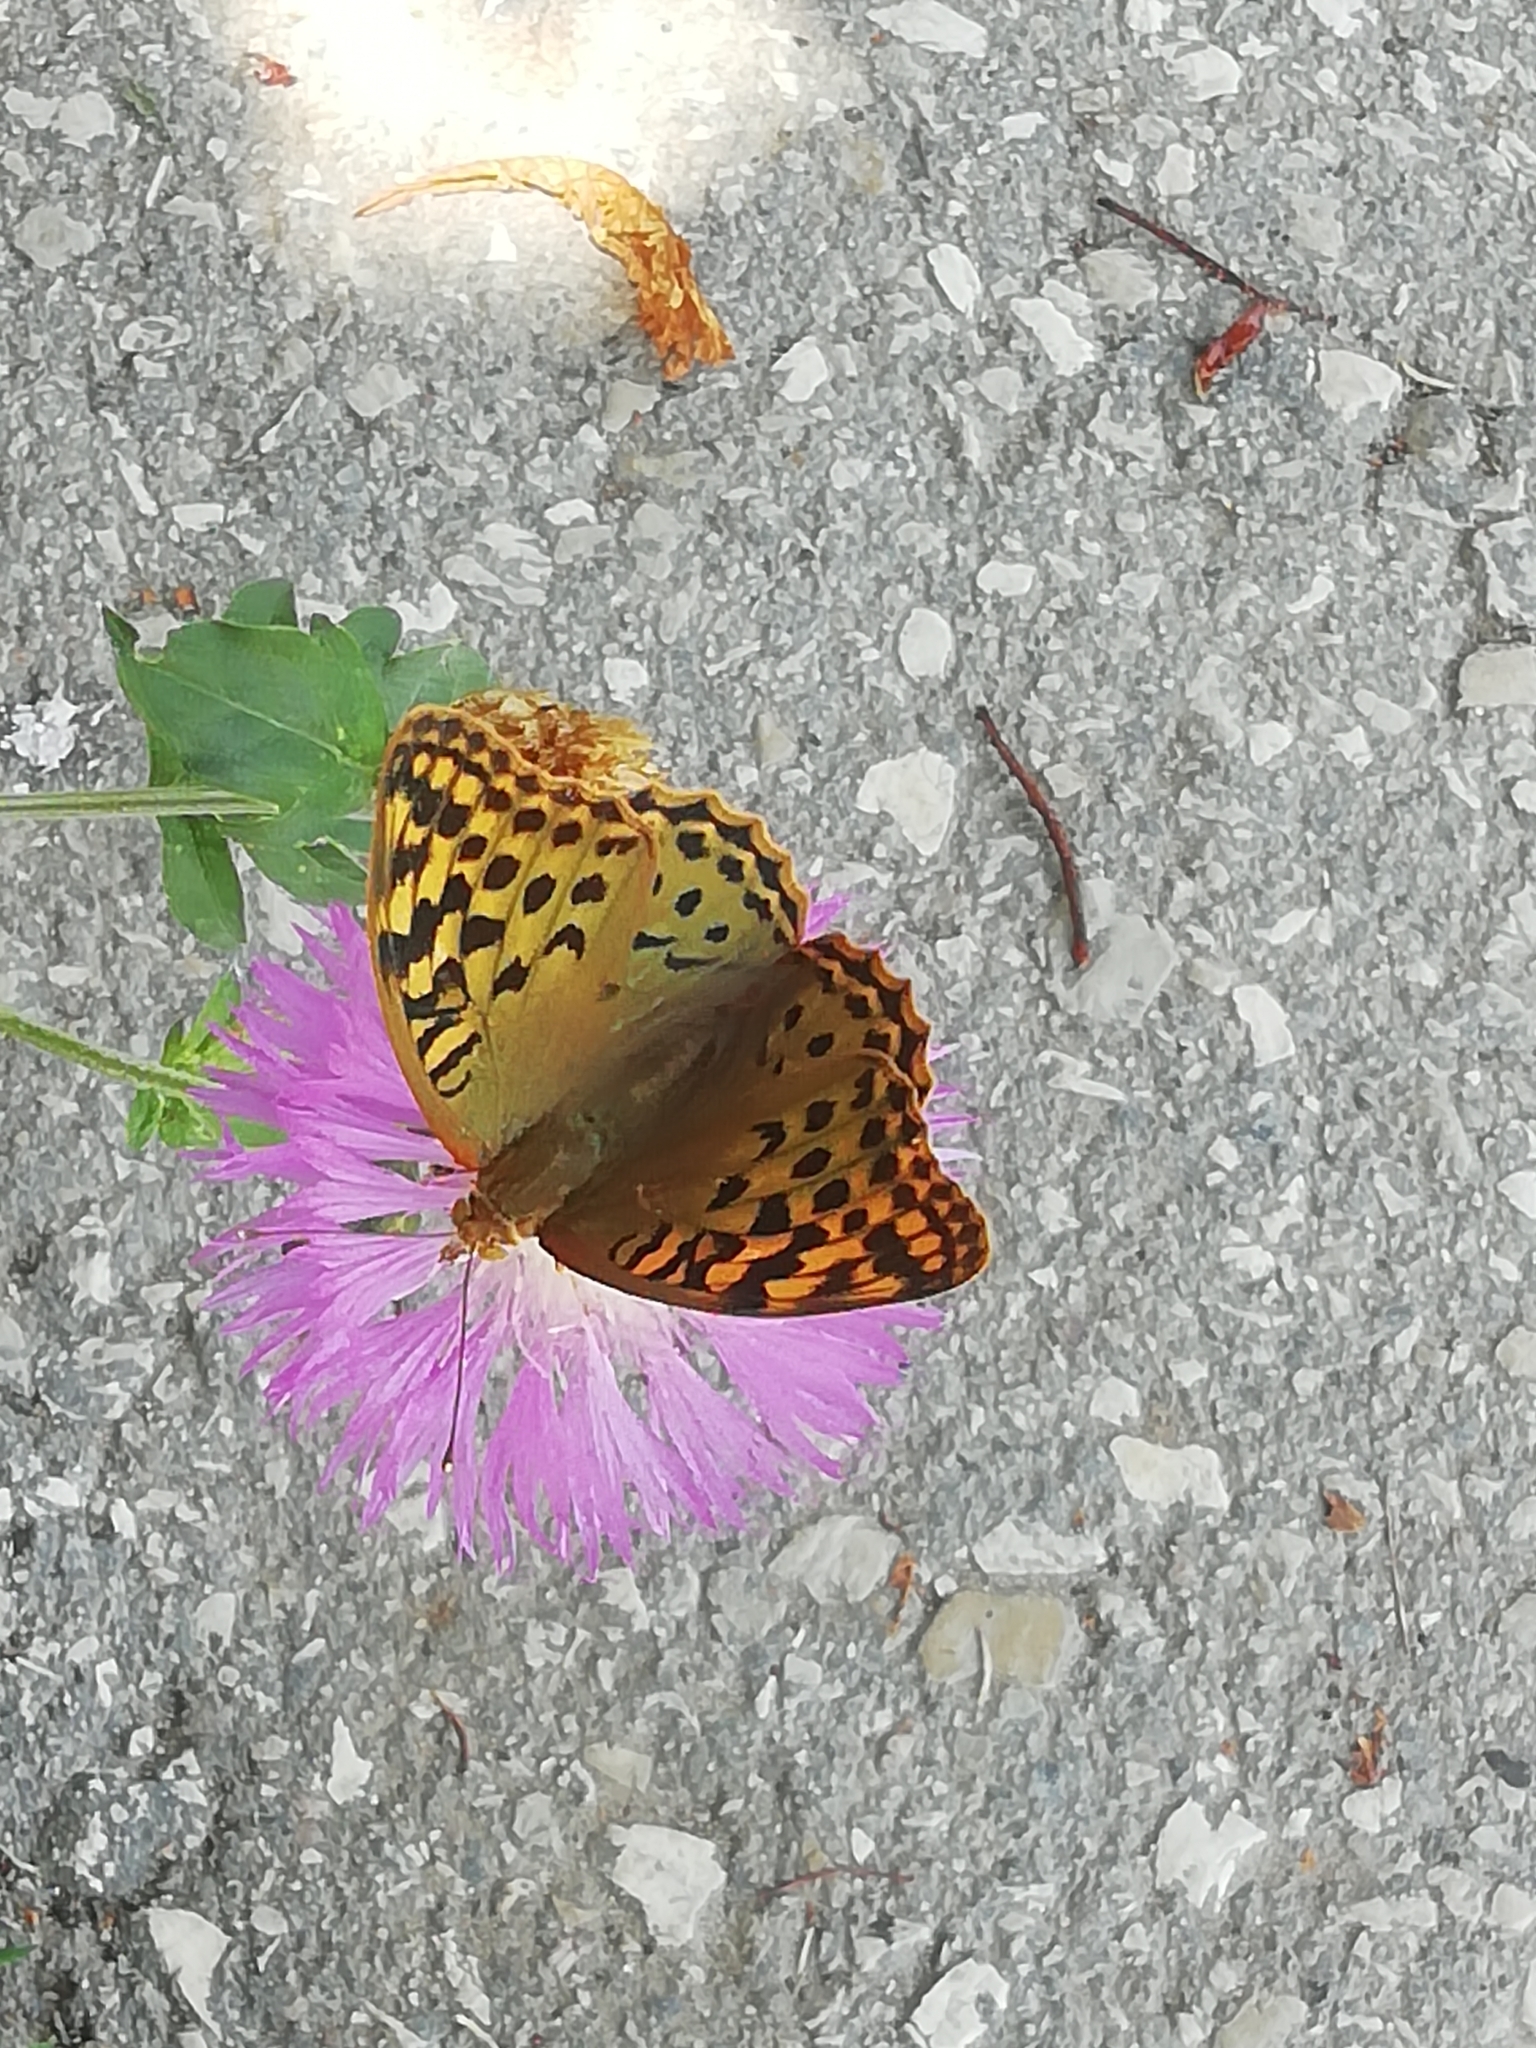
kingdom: Animalia
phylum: Arthropoda
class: Insecta
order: Lepidoptera
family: Nymphalidae
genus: Damora
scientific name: Damora pandora
